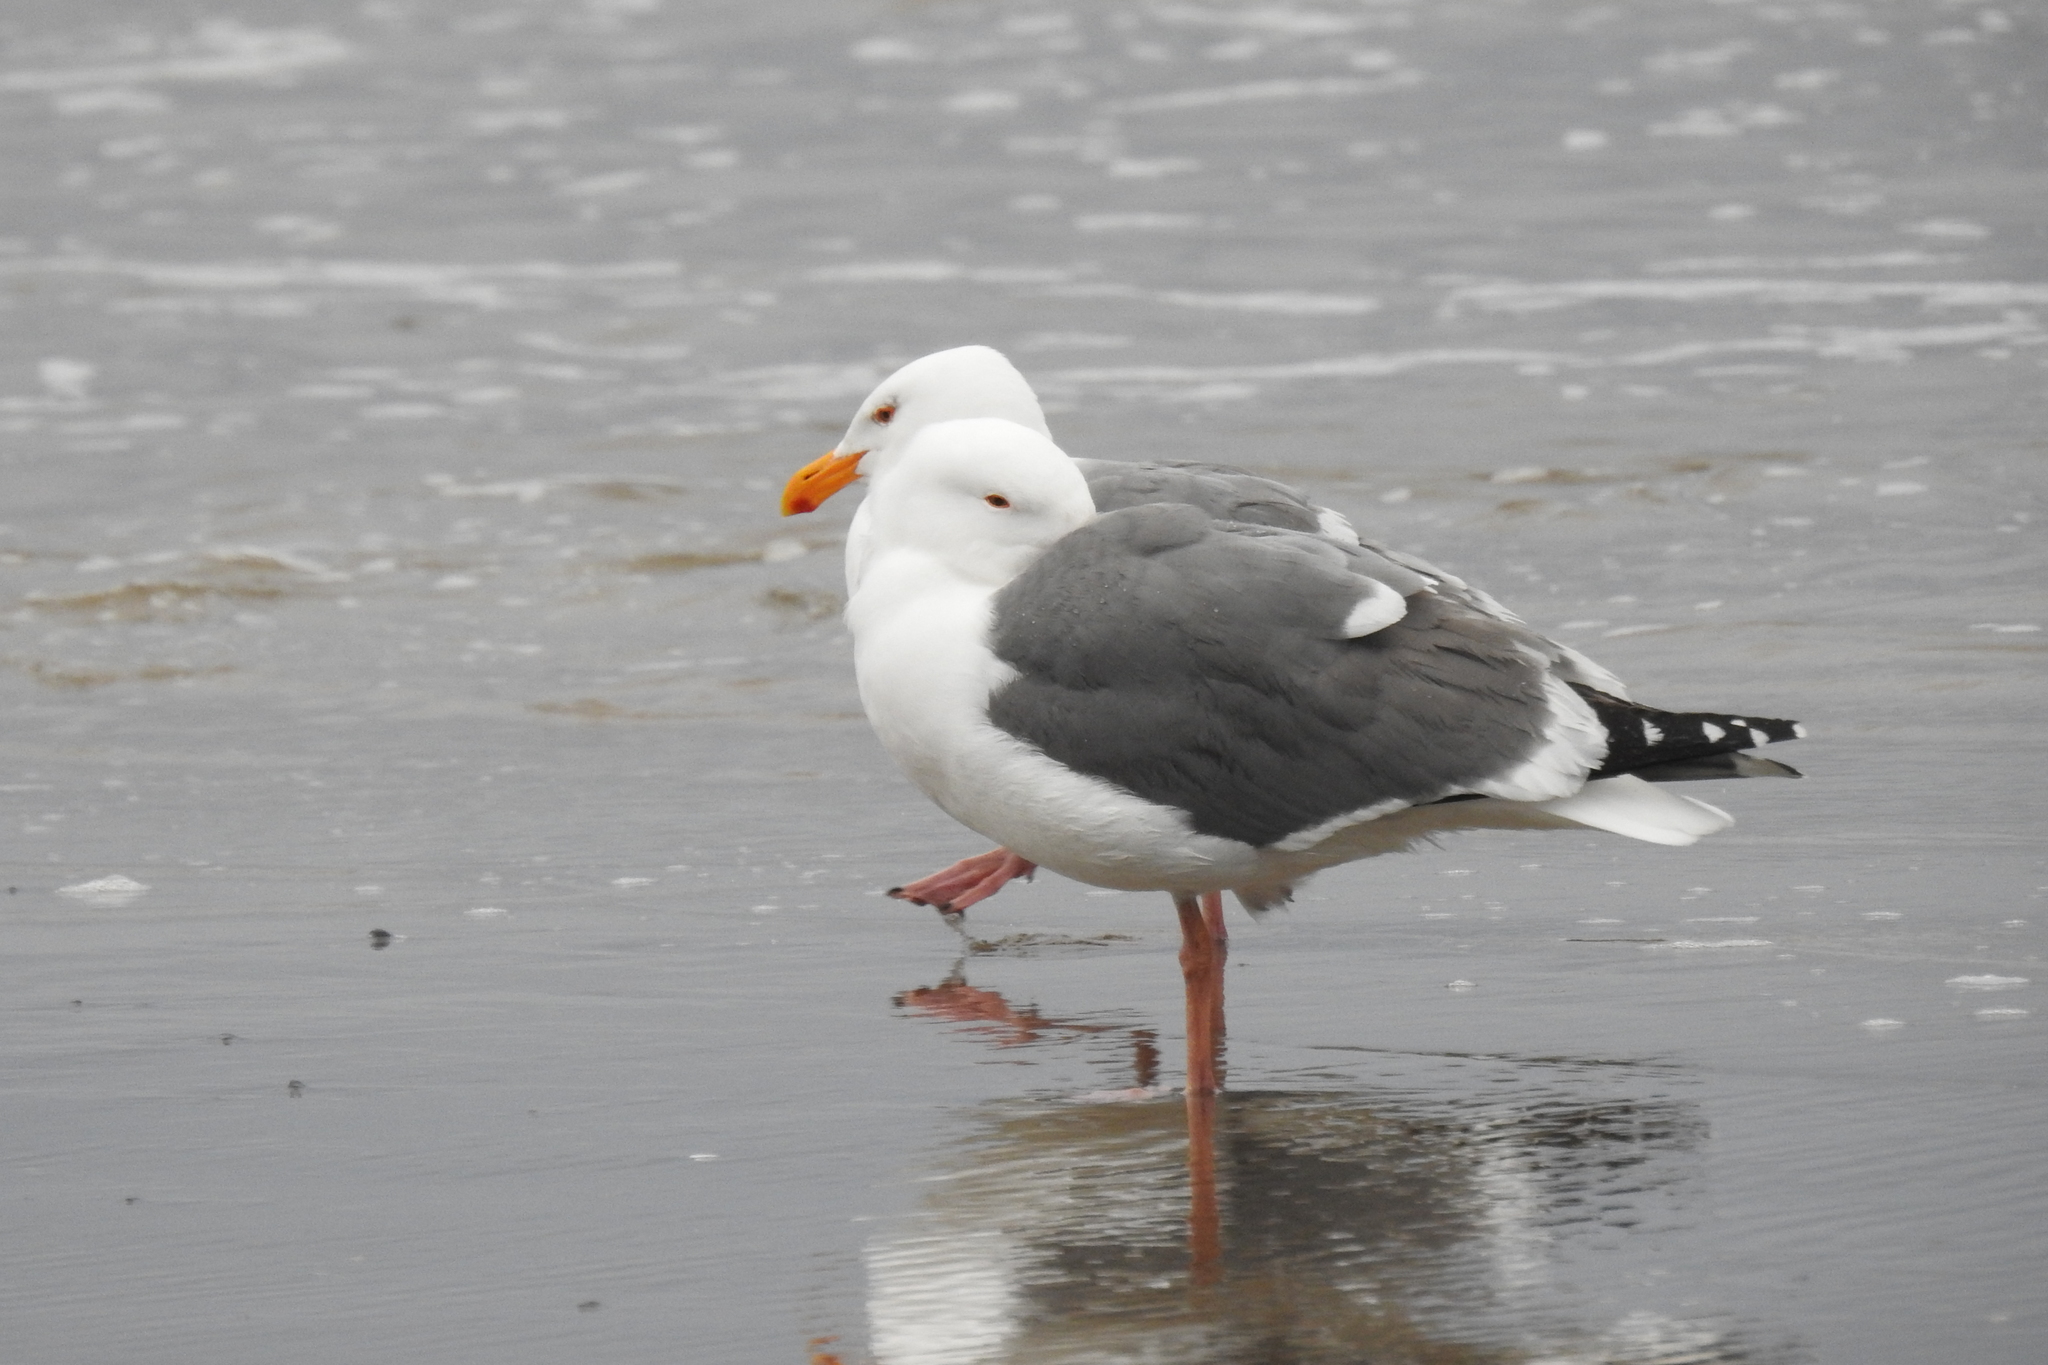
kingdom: Animalia
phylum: Chordata
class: Aves
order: Charadriiformes
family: Laridae
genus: Larus
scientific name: Larus occidentalis
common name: Western gull
